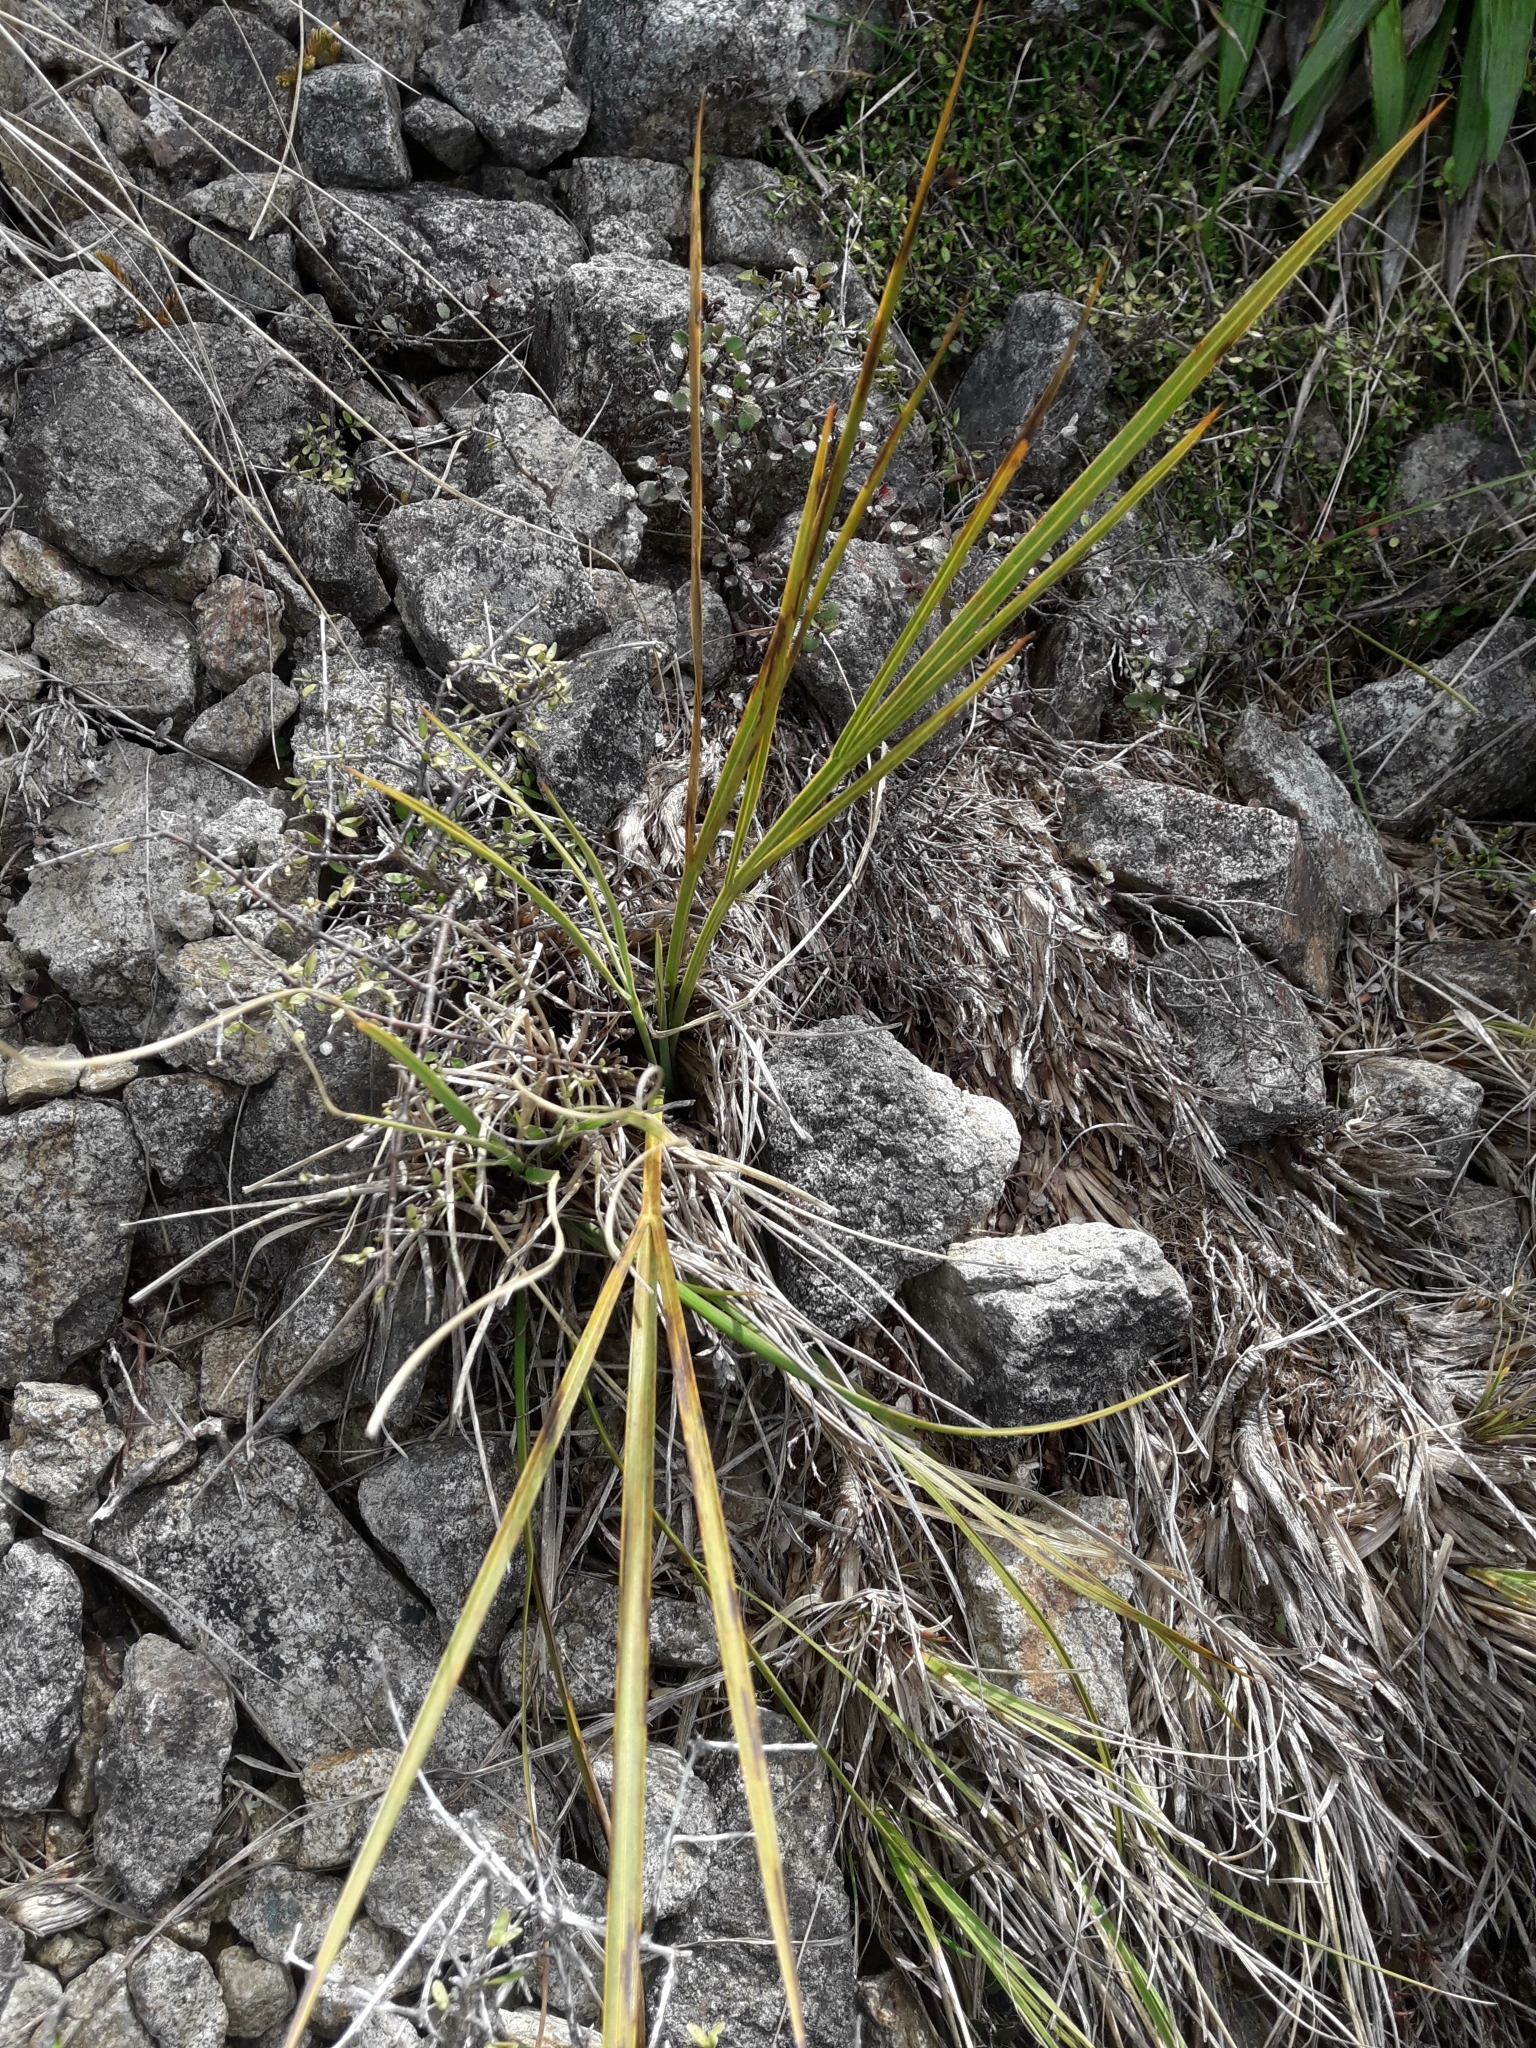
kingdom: Plantae
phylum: Tracheophyta
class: Magnoliopsida
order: Apiales
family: Apiaceae
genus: Aciphylla
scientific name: Aciphylla scott-thomsonii
